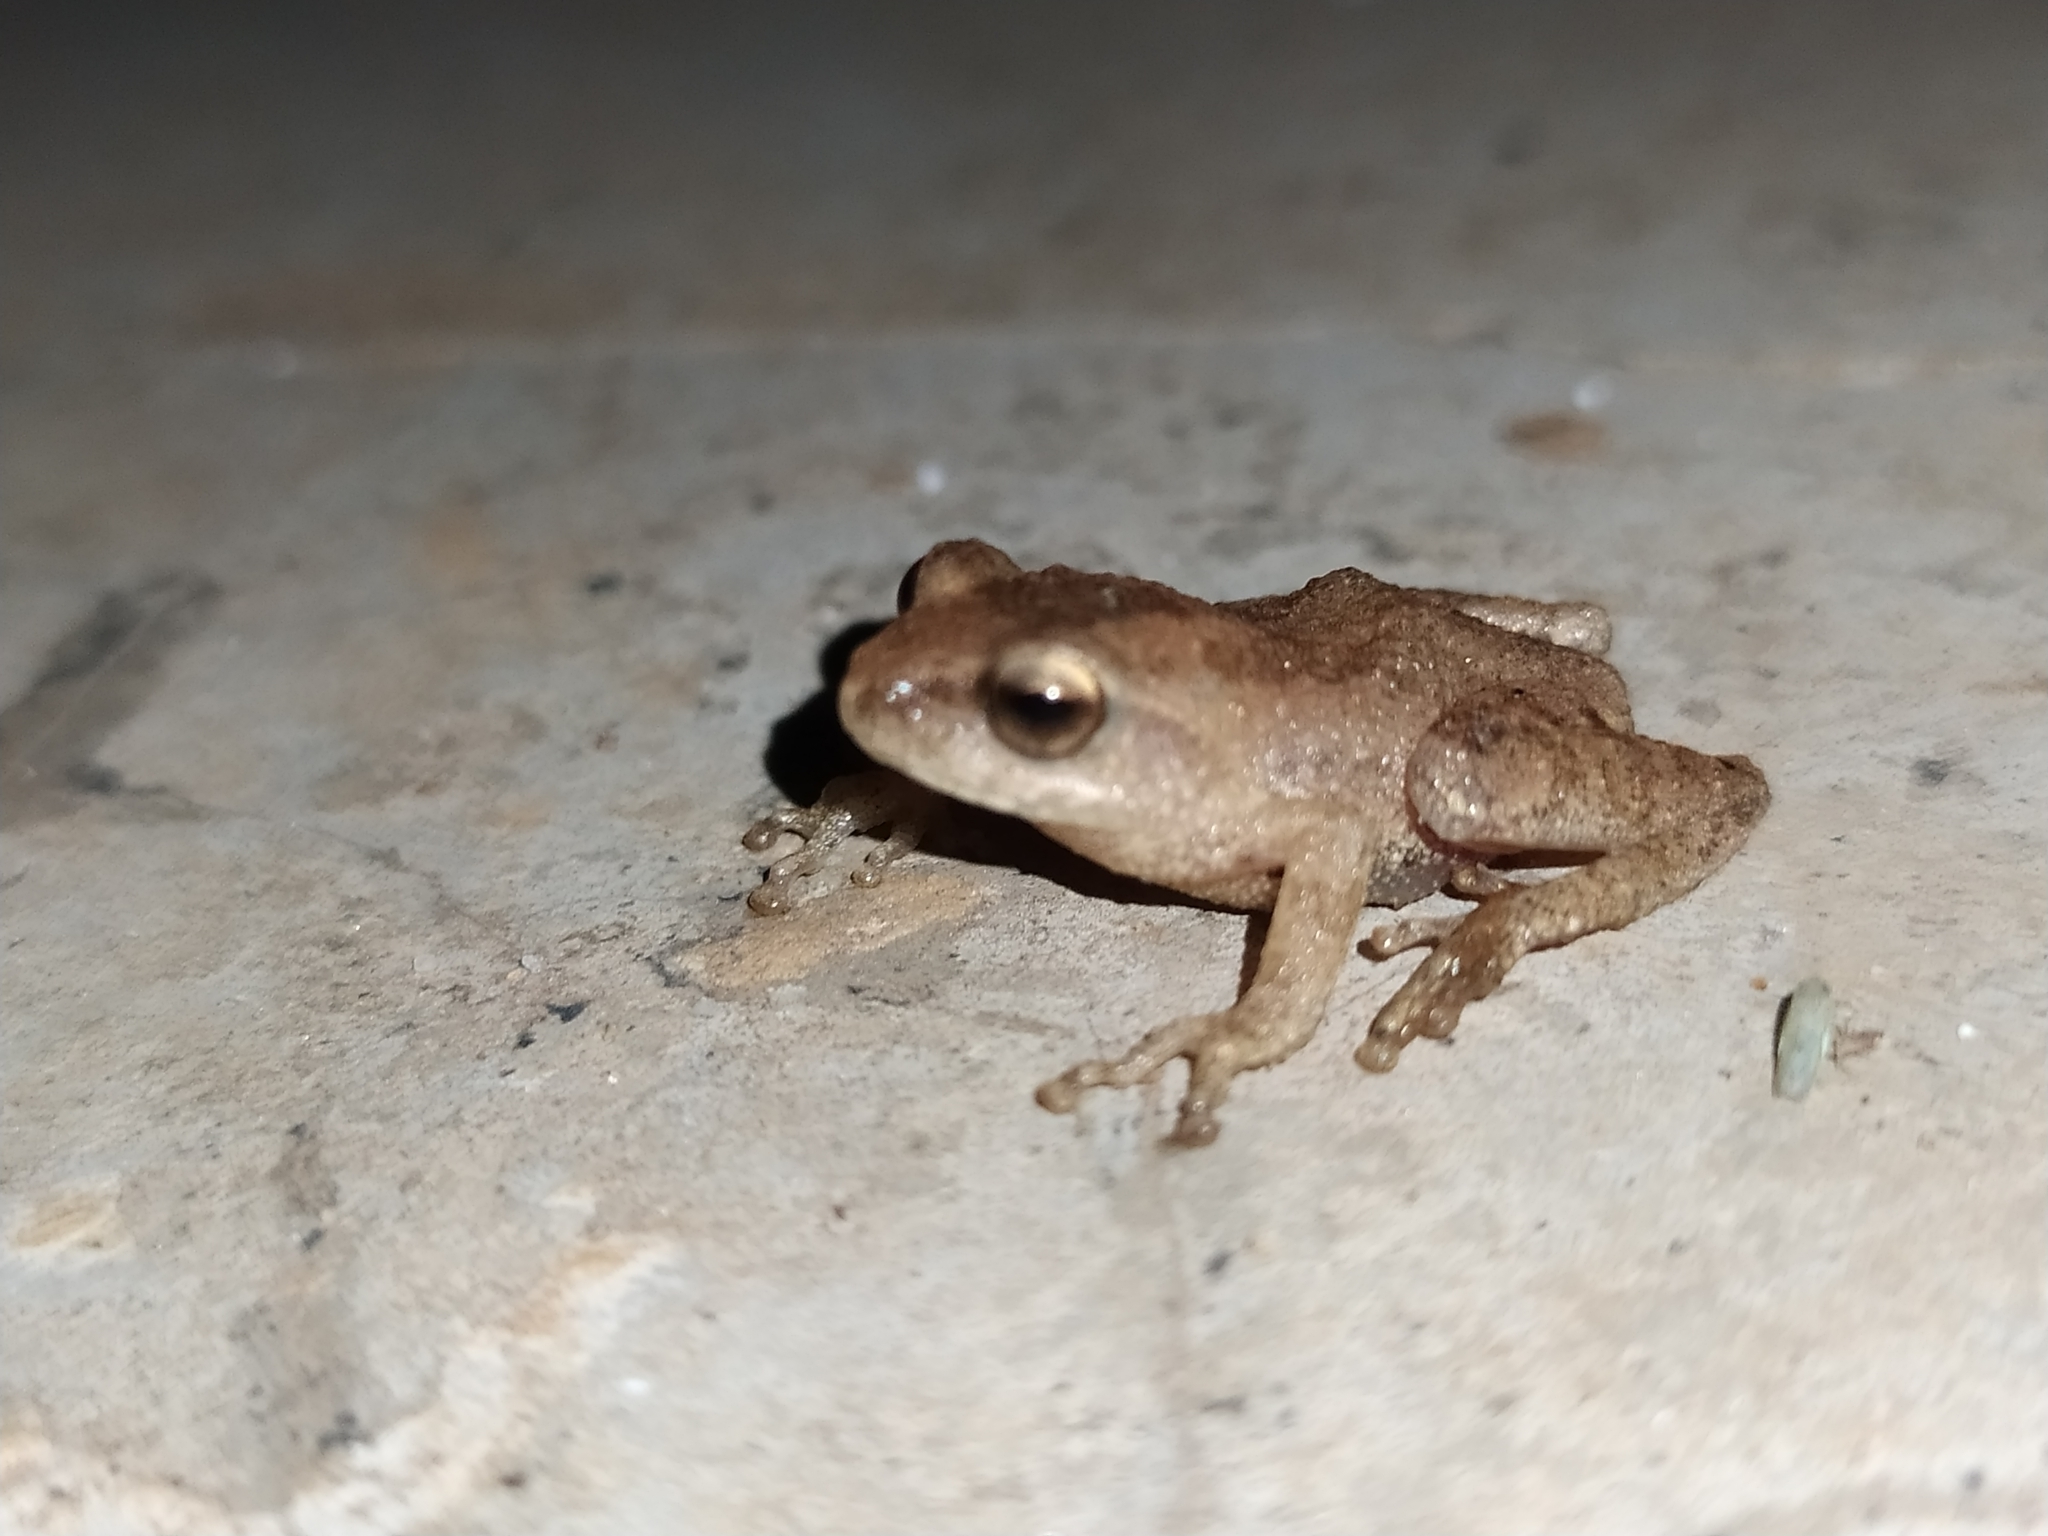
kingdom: Animalia
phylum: Chordata
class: Amphibia
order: Anura
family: Rhacophoridae
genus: Raorchestes
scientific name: Raorchestes tuberohumerus
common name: Kudremukh bush frog
